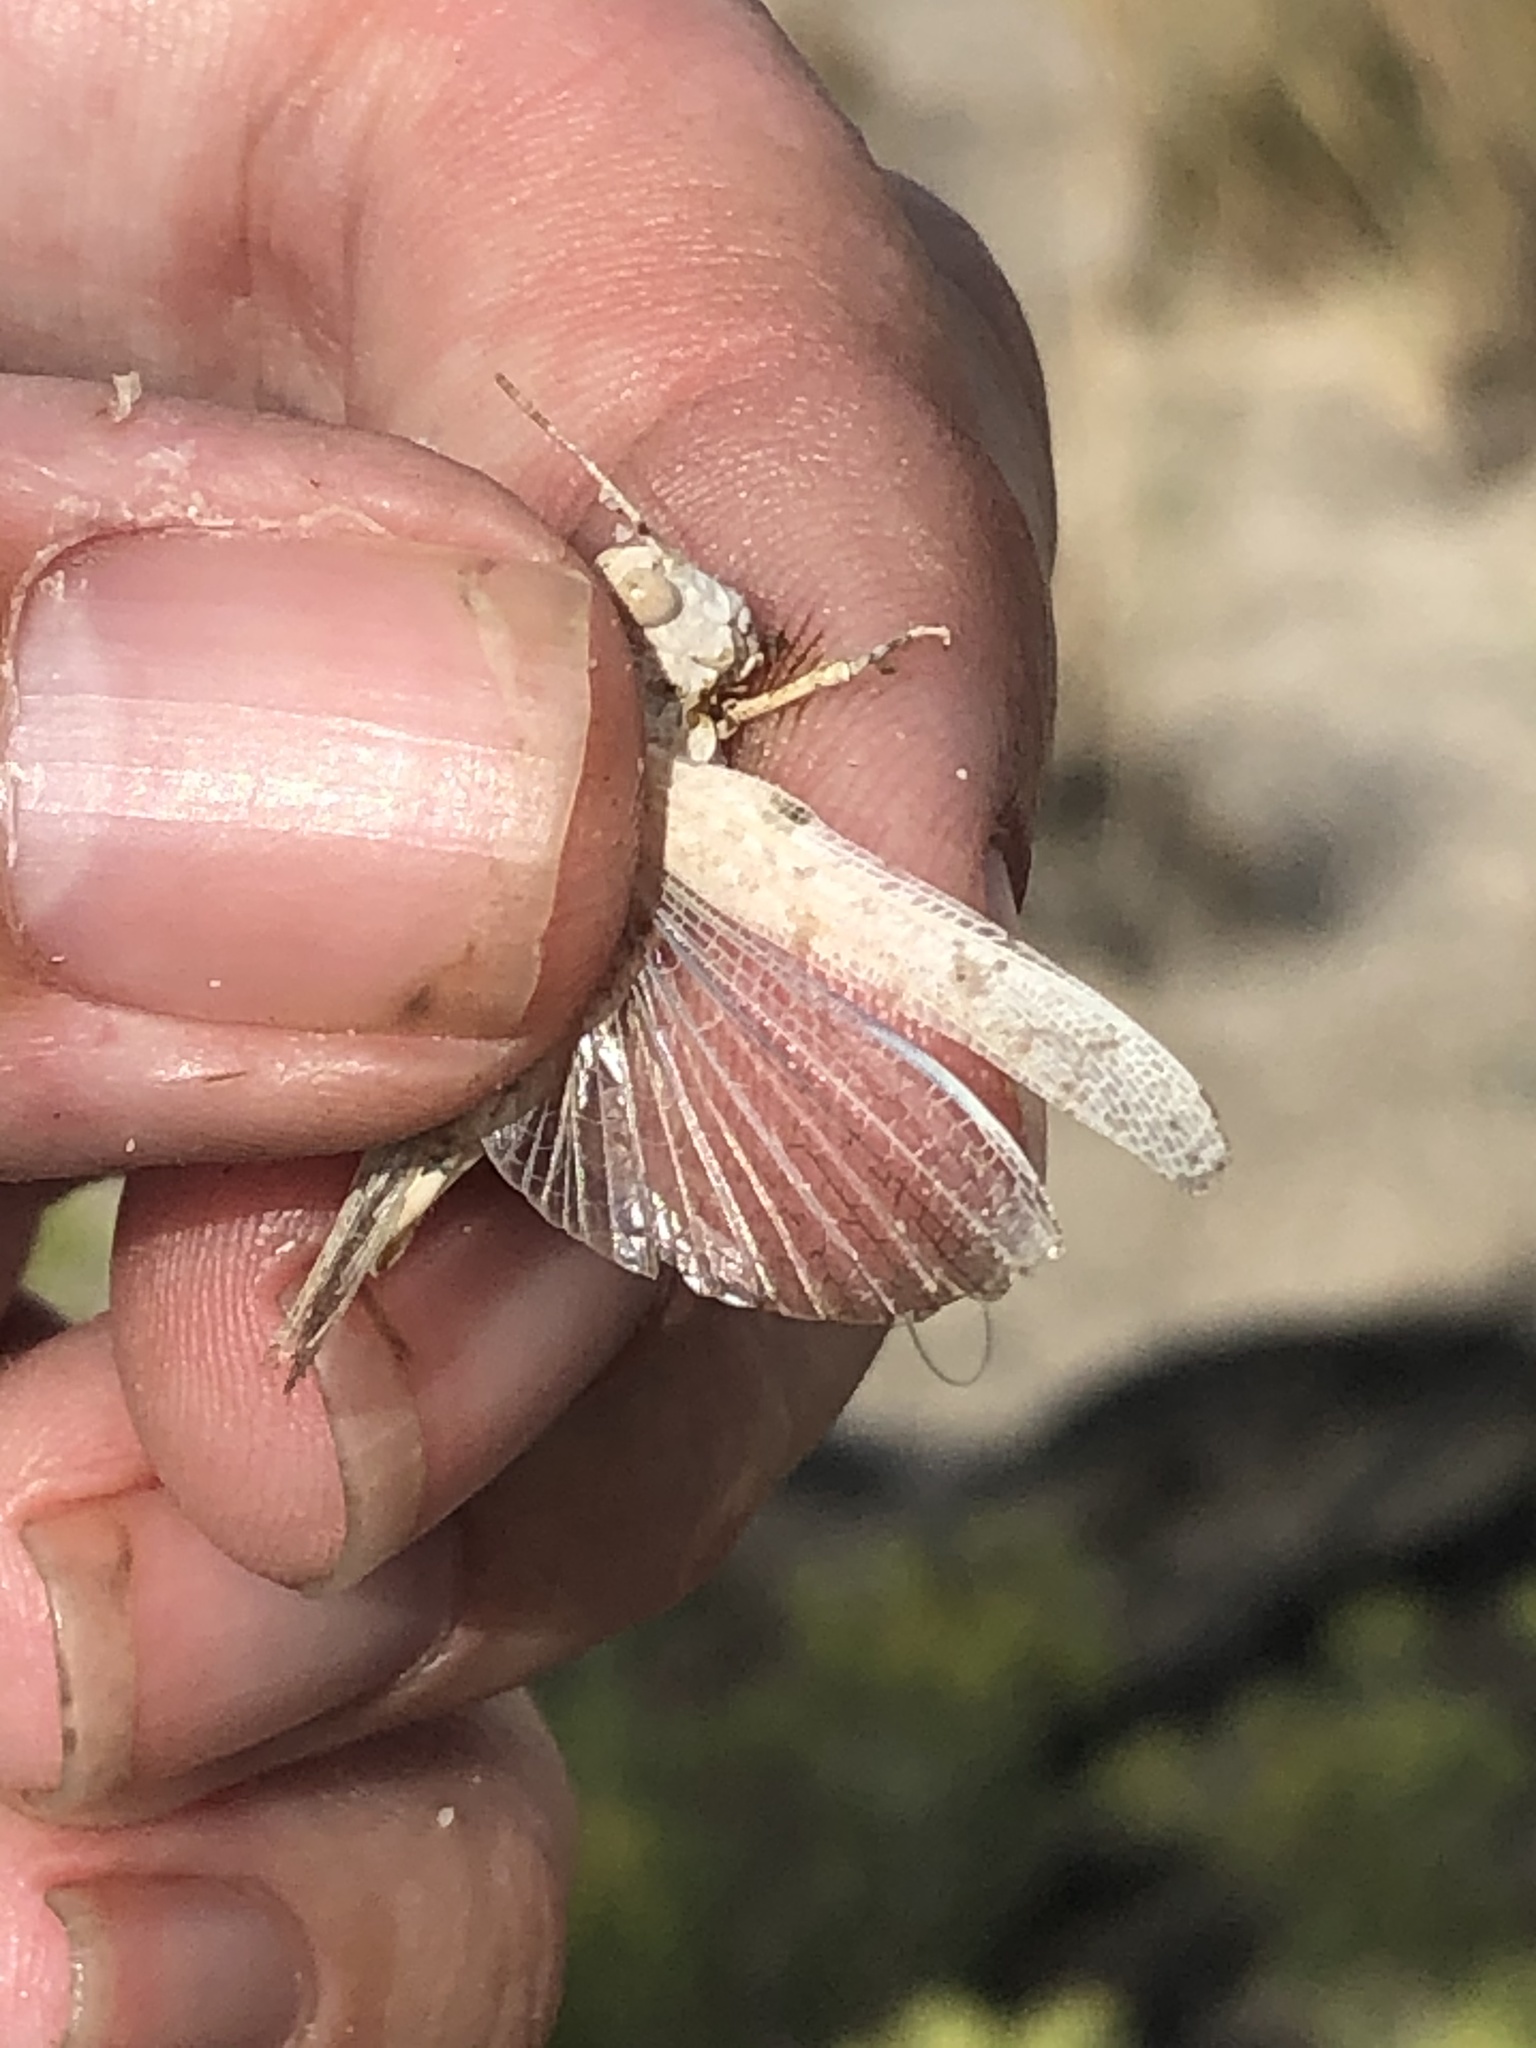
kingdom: Animalia
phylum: Arthropoda
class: Insecta
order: Orthoptera
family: Acrididae
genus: Cibolacris
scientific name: Cibolacris samalayucae
